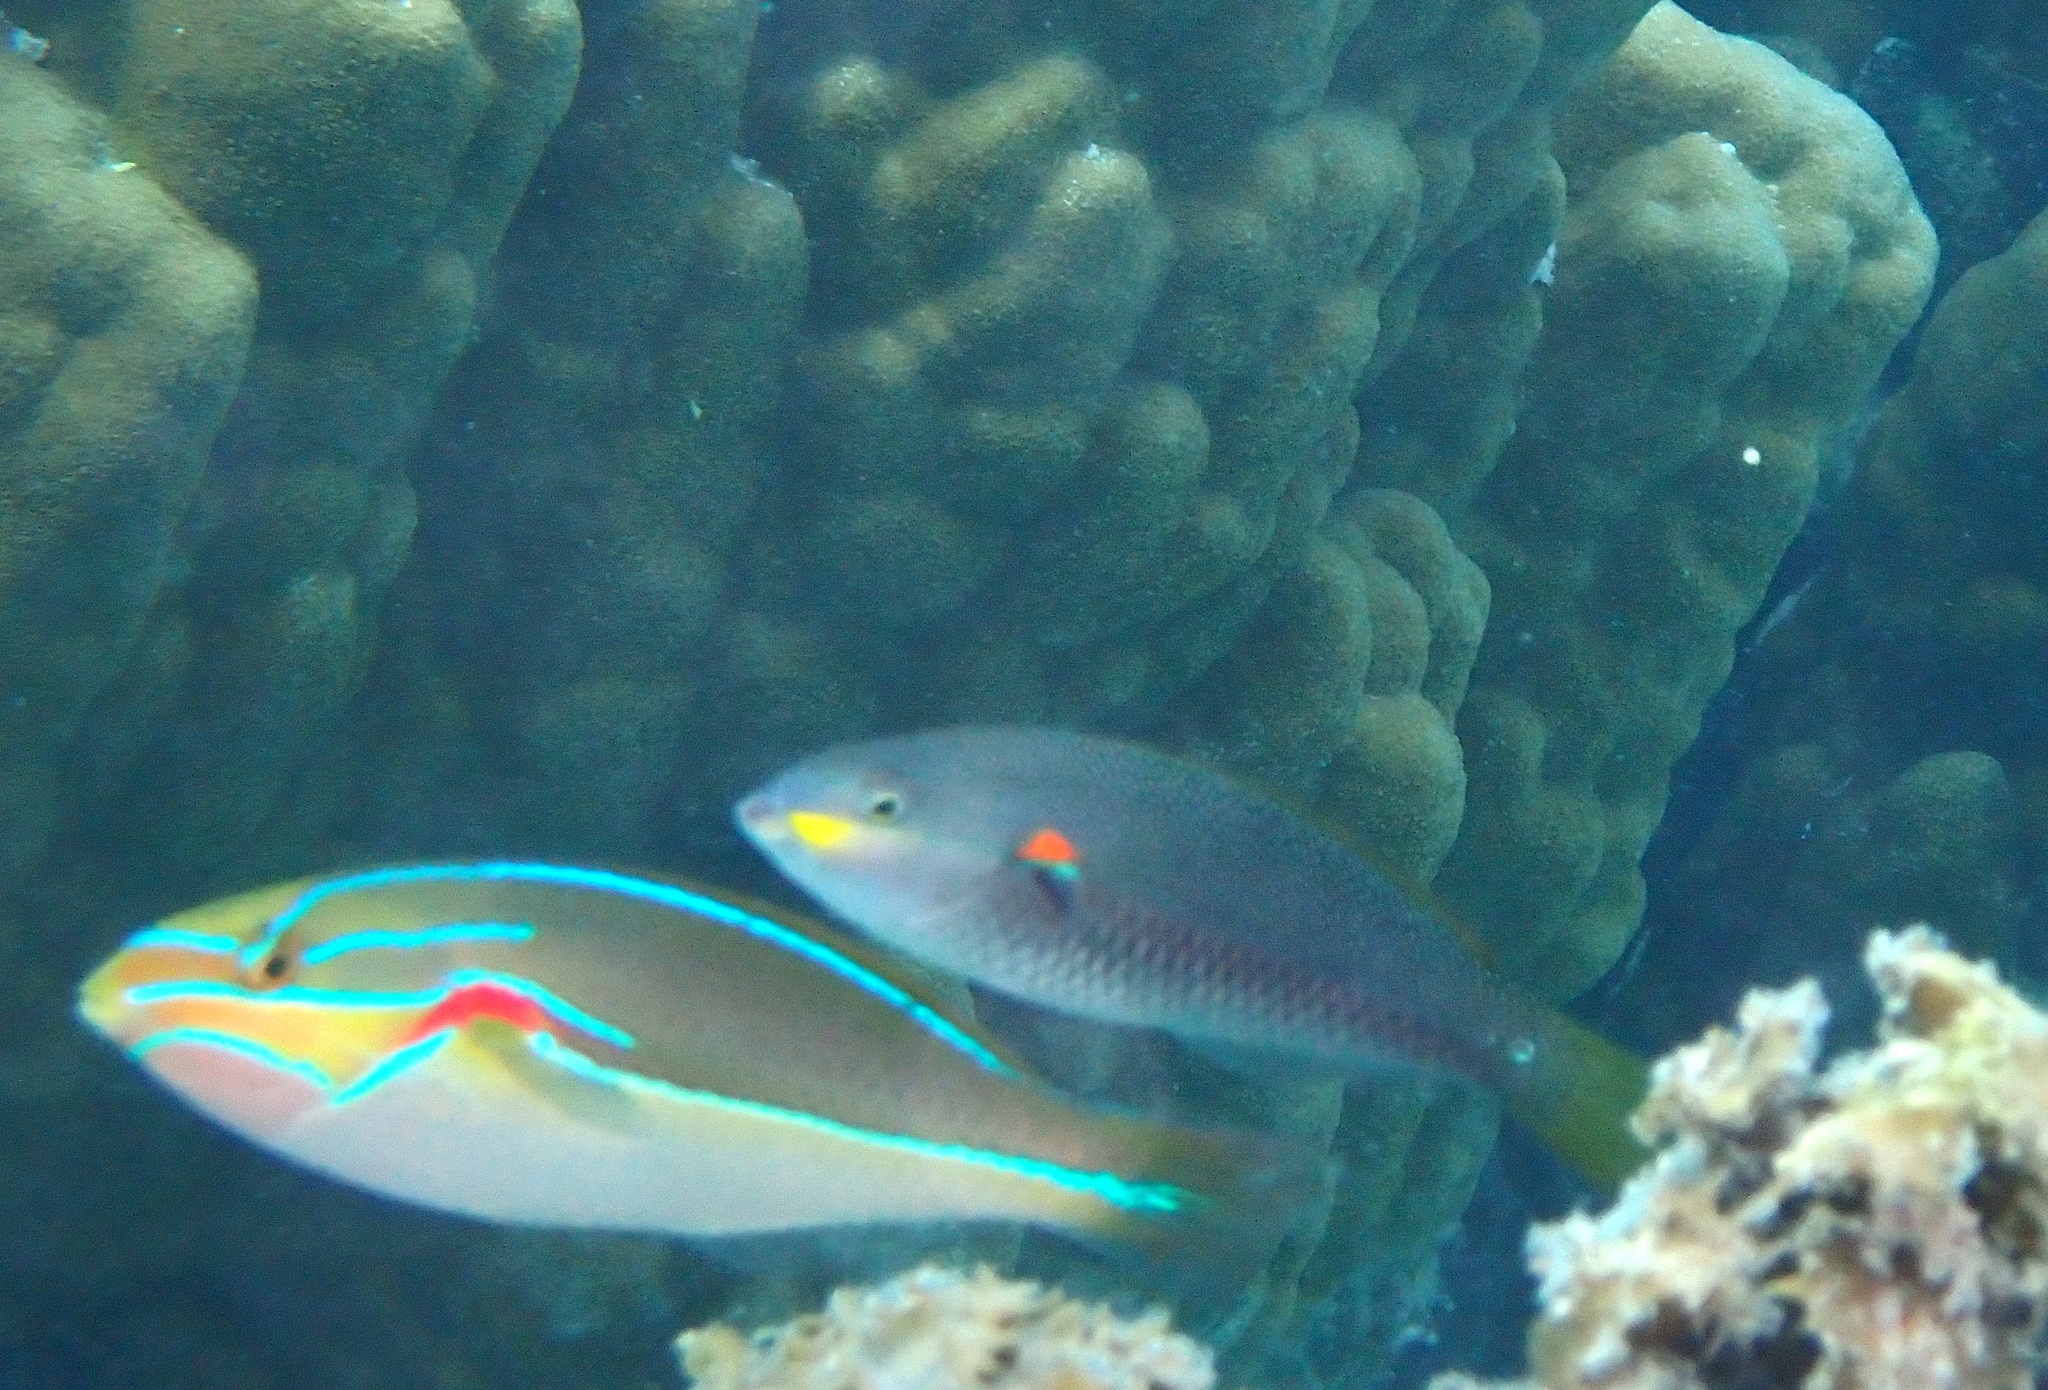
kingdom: Animalia
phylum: Chordata
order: Perciformes
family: Labridae
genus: Stethojulis
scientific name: Stethojulis bandanensis
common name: Red shoulder wrasse
